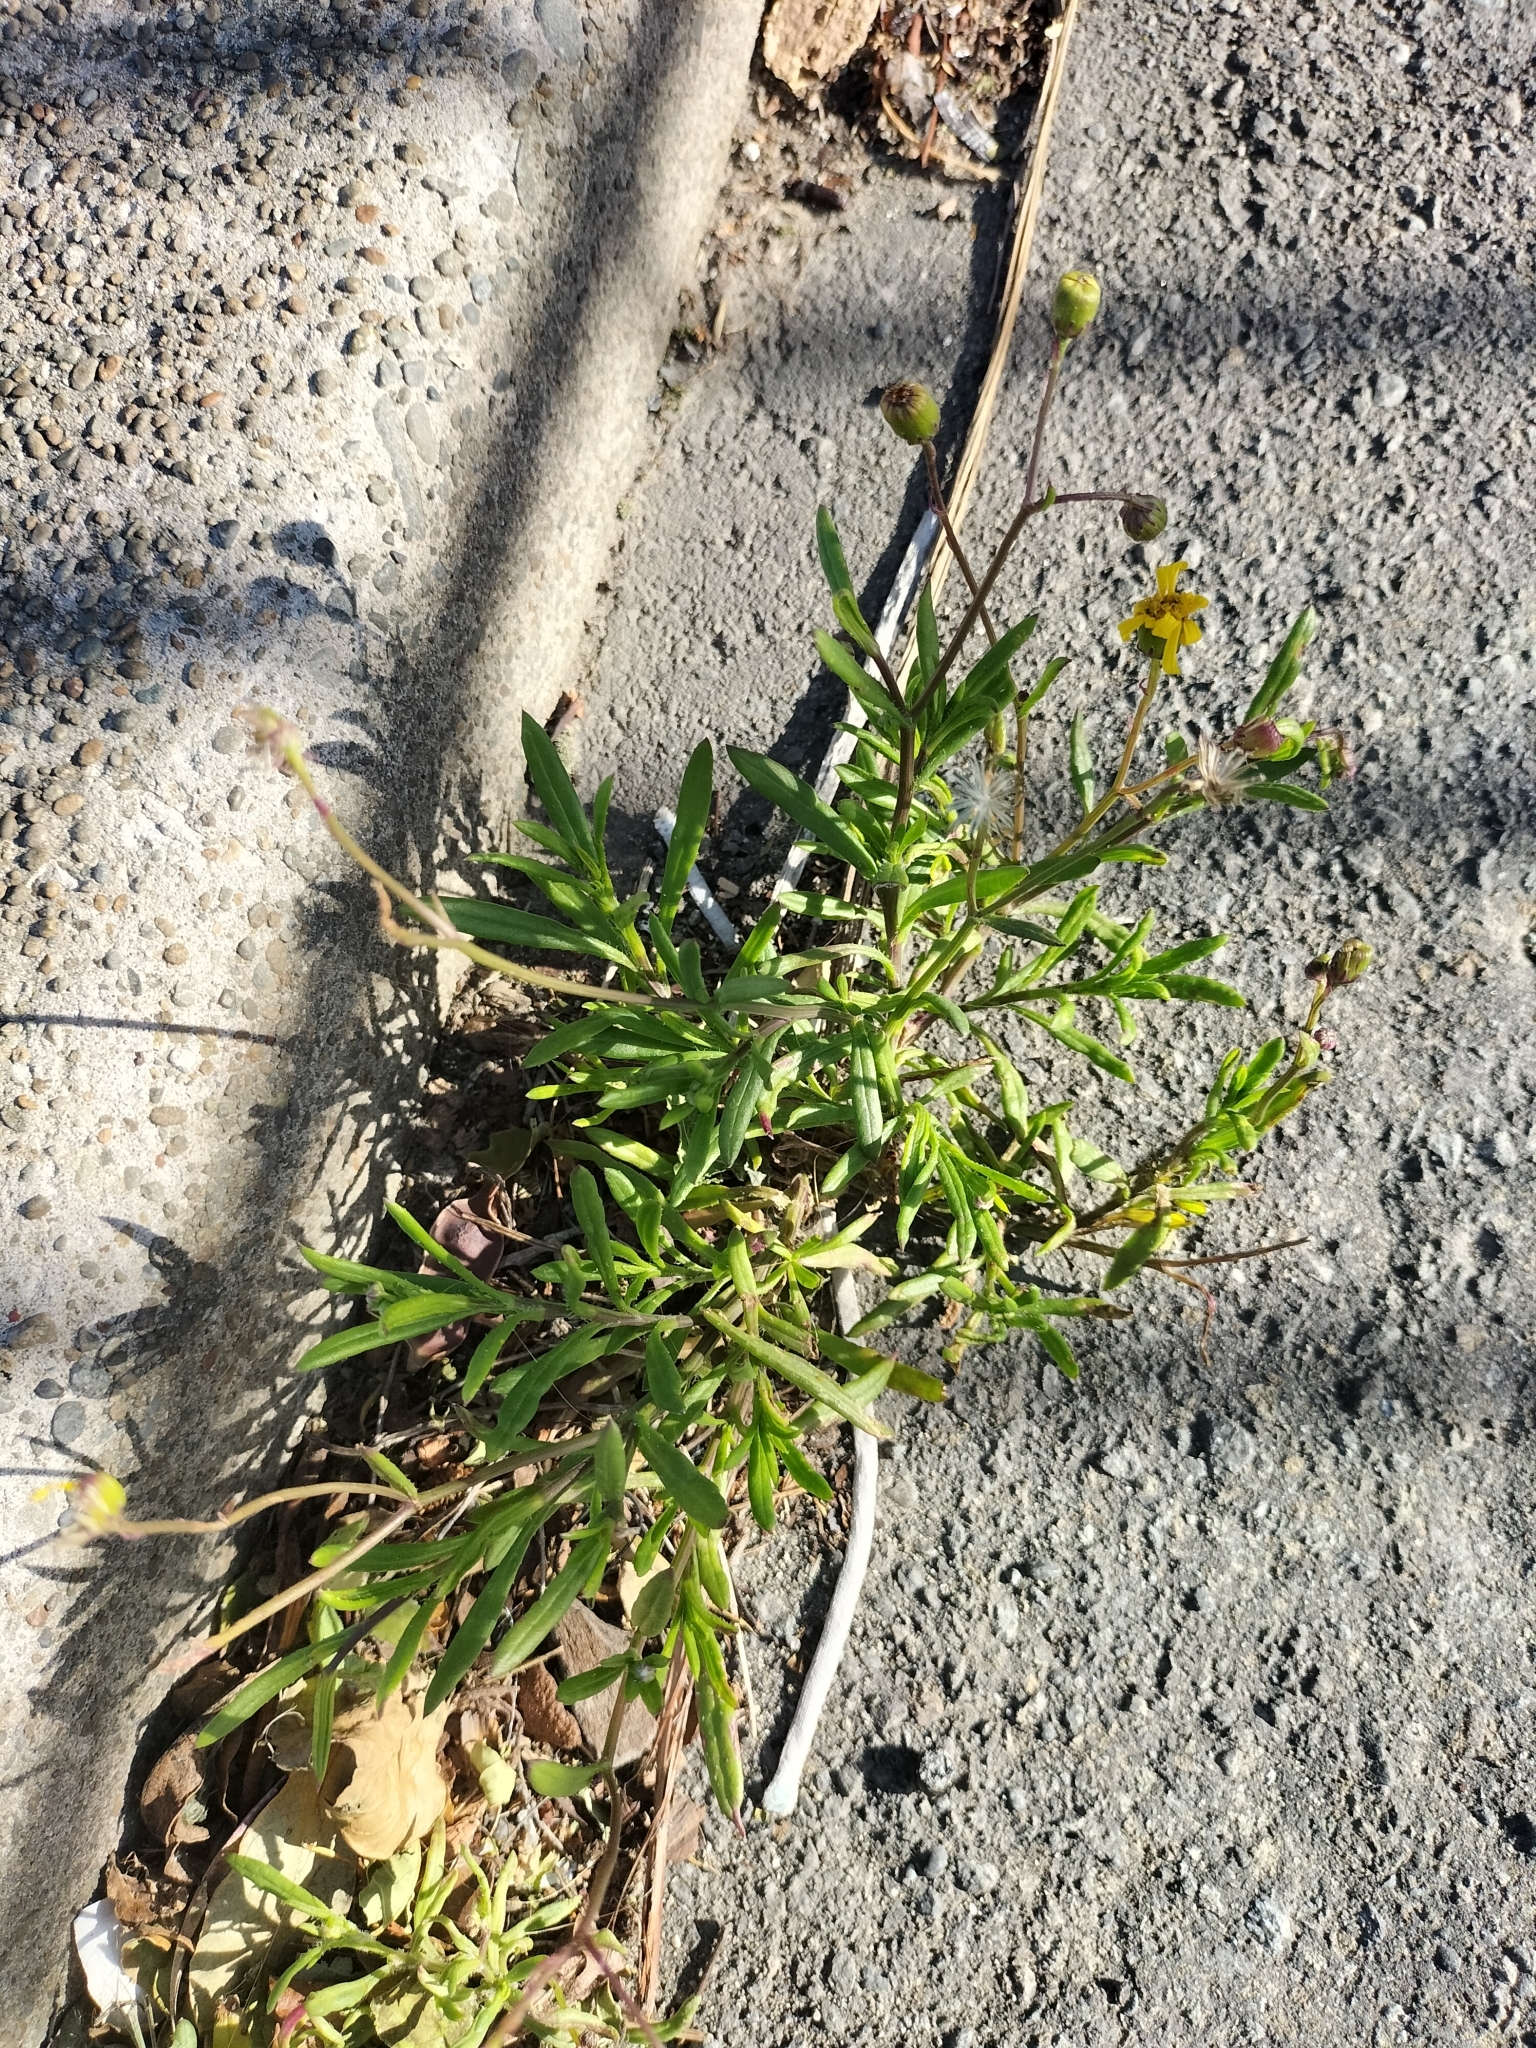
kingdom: Plantae
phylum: Tracheophyta
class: Magnoliopsida
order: Asterales
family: Asteraceae
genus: Senecio
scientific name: Senecio skirrhodon
